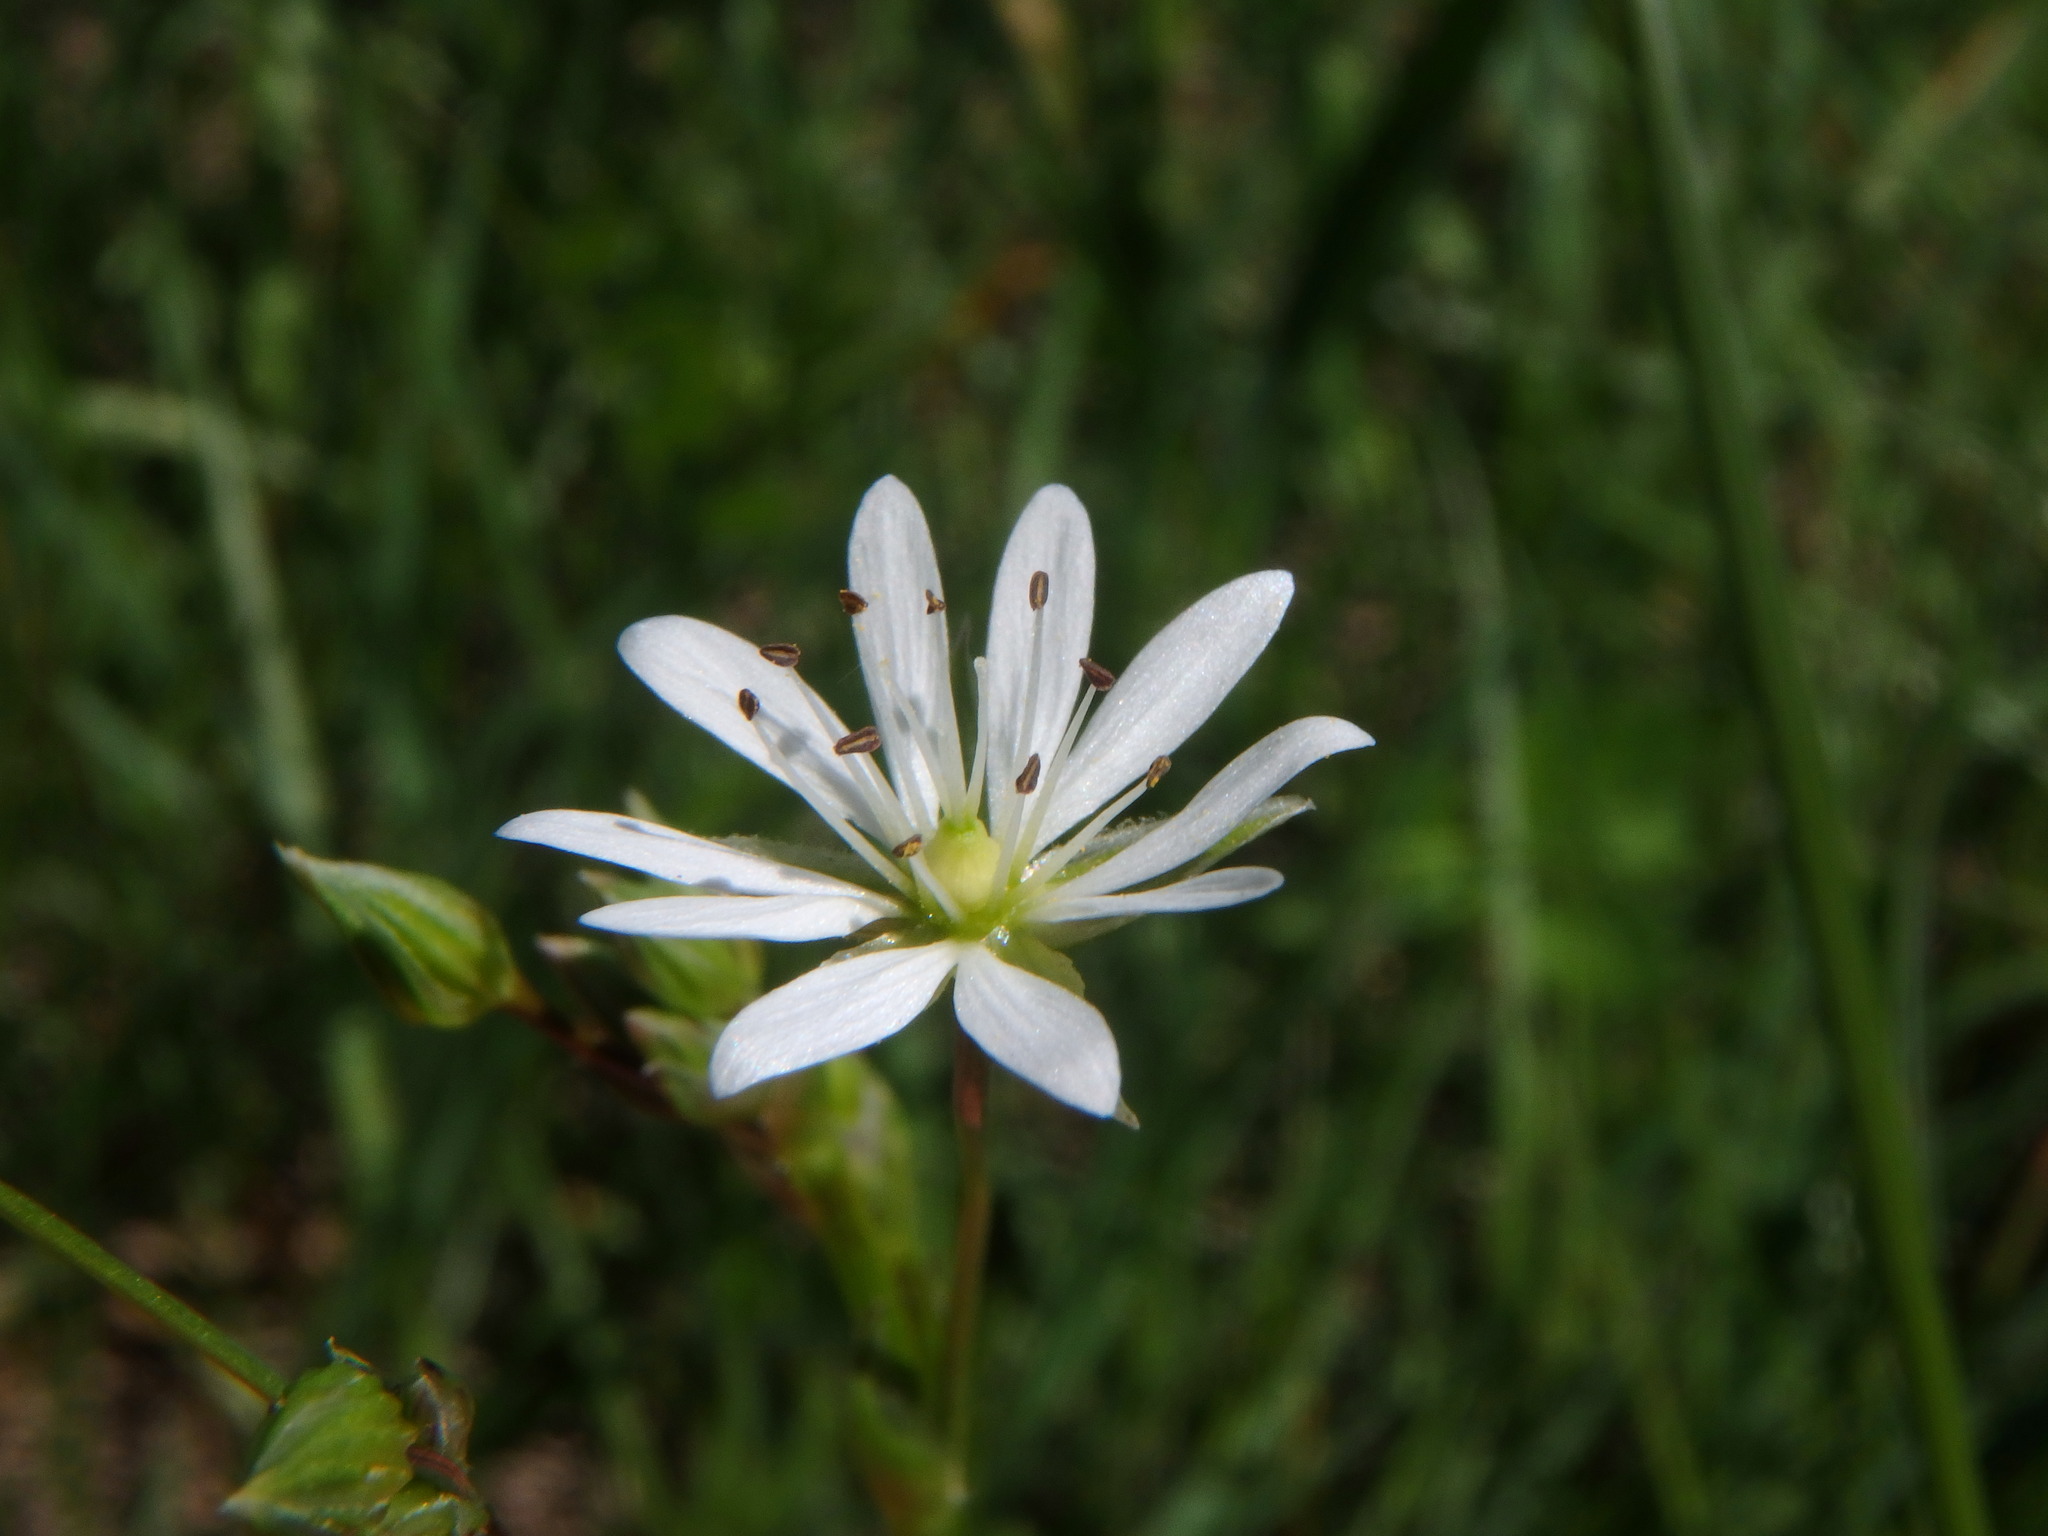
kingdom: Plantae
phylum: Tracheophyta
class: Magnoliopsida
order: Caryophyllales
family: Caryophyllaceae
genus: Stellaria
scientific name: Stellaria graminea
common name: Grass-like starwort
